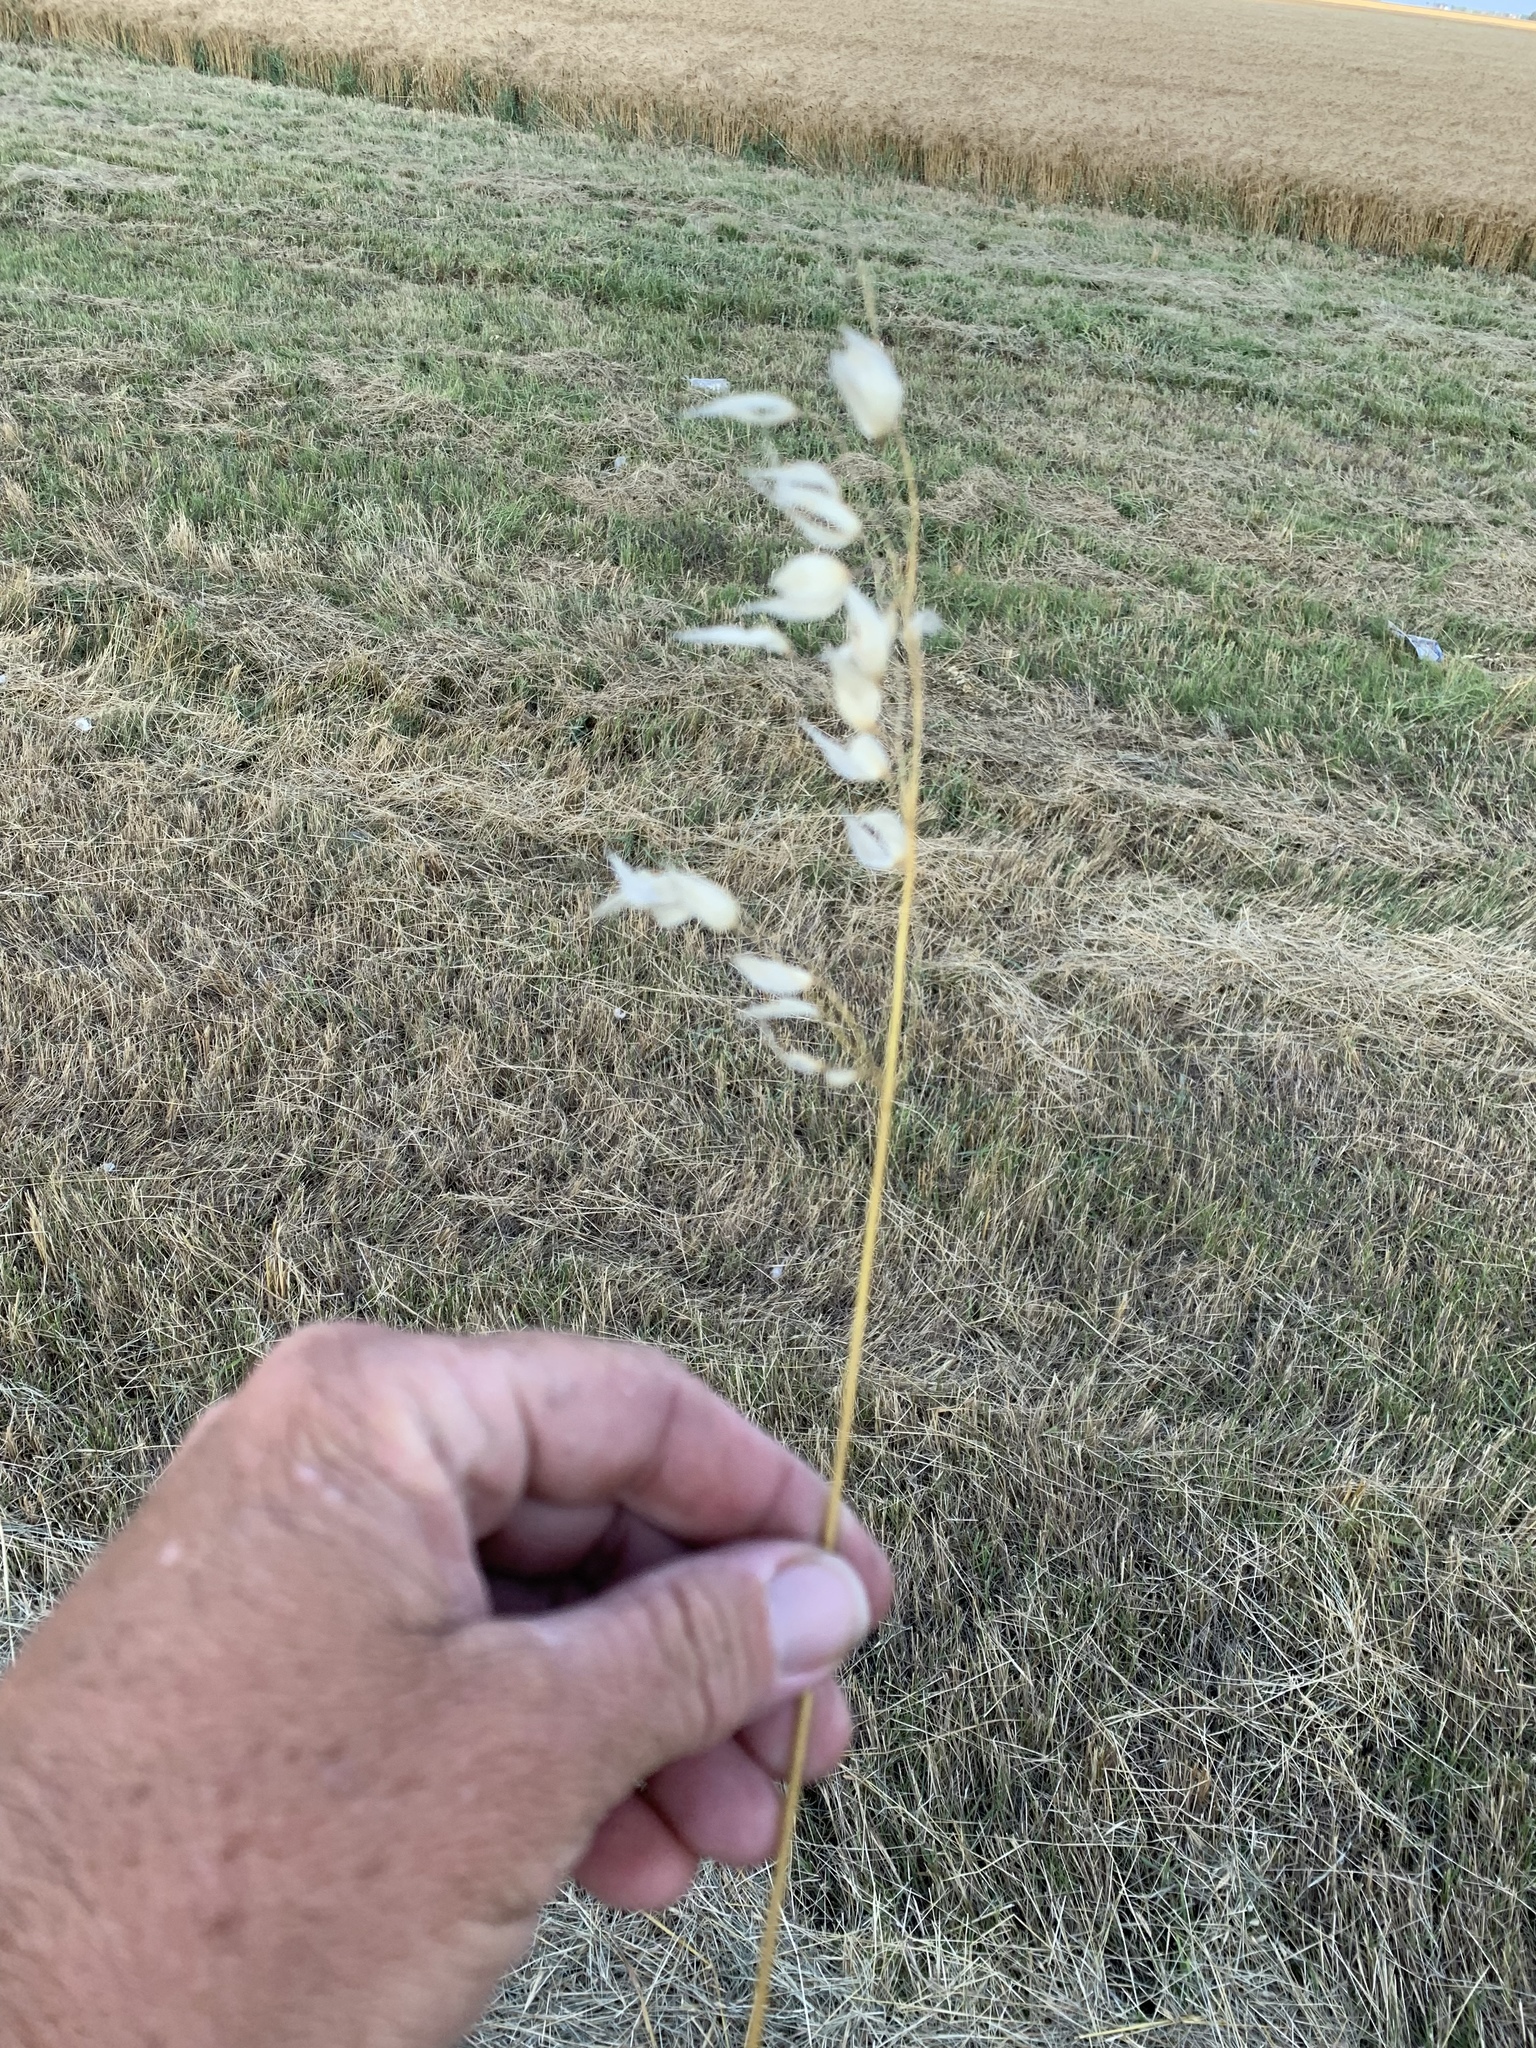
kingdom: Plantae
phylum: Tracheophyta
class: Liliopsida
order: Poales
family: Poaceae
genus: Avena
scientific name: Avena fatua
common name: Wild oat
